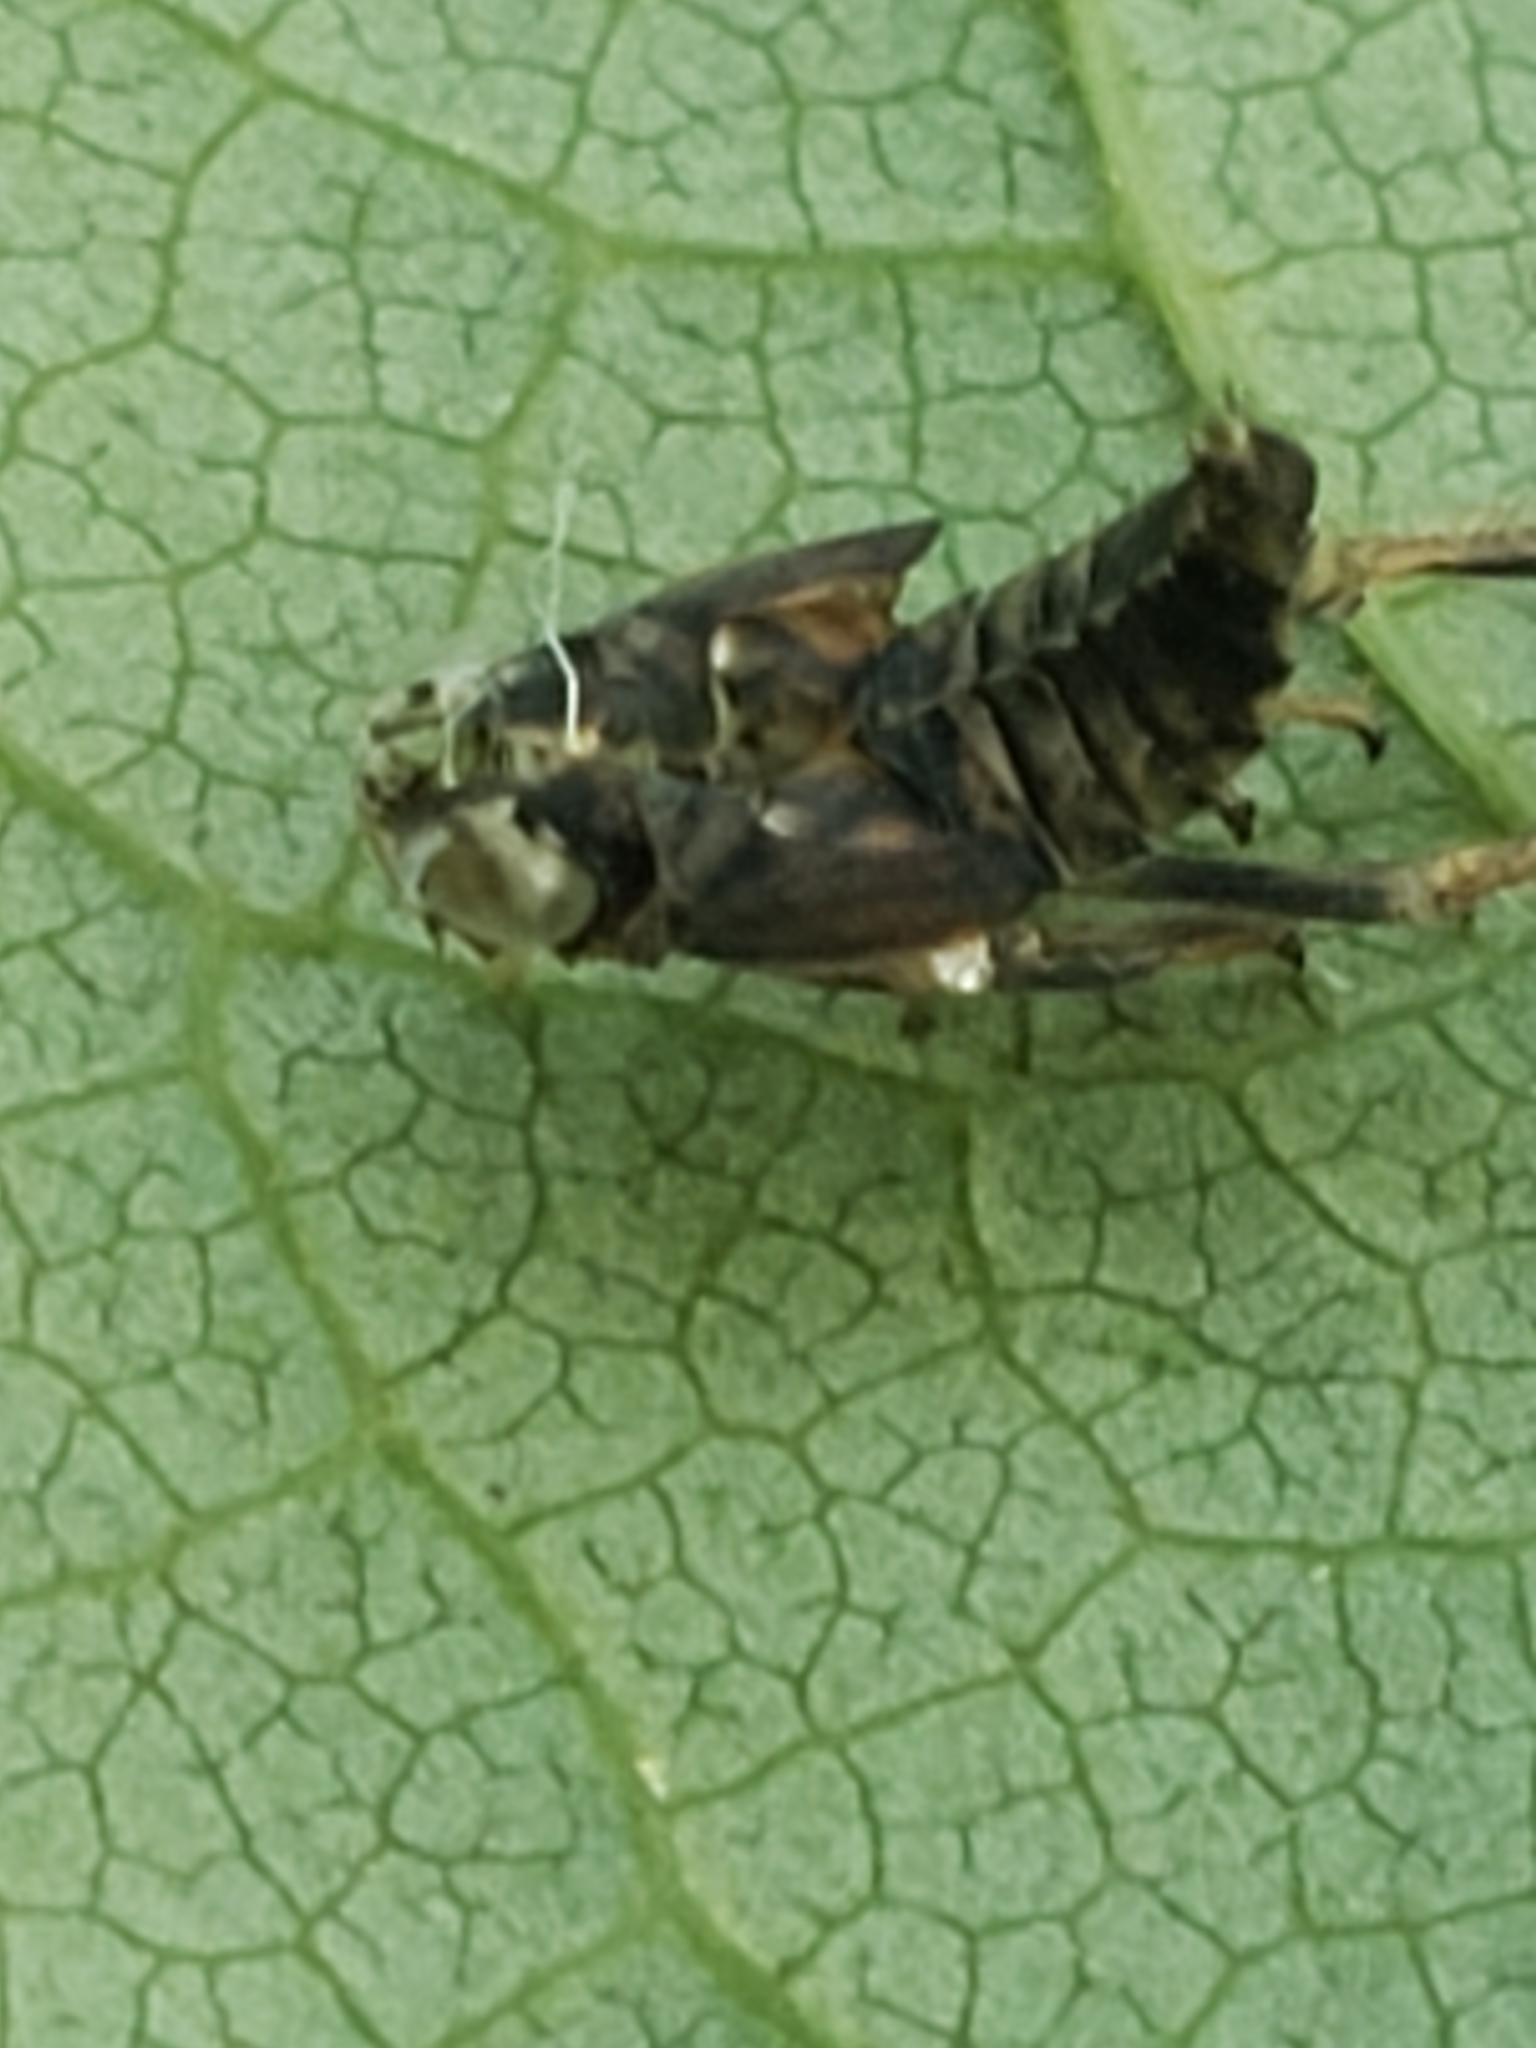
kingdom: Animalia
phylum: Arthropoda
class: Insecta
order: Hemiptera
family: Cicadellidae
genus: Jikradia
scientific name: Jikradia olitoria
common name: Coppery leafhopper
